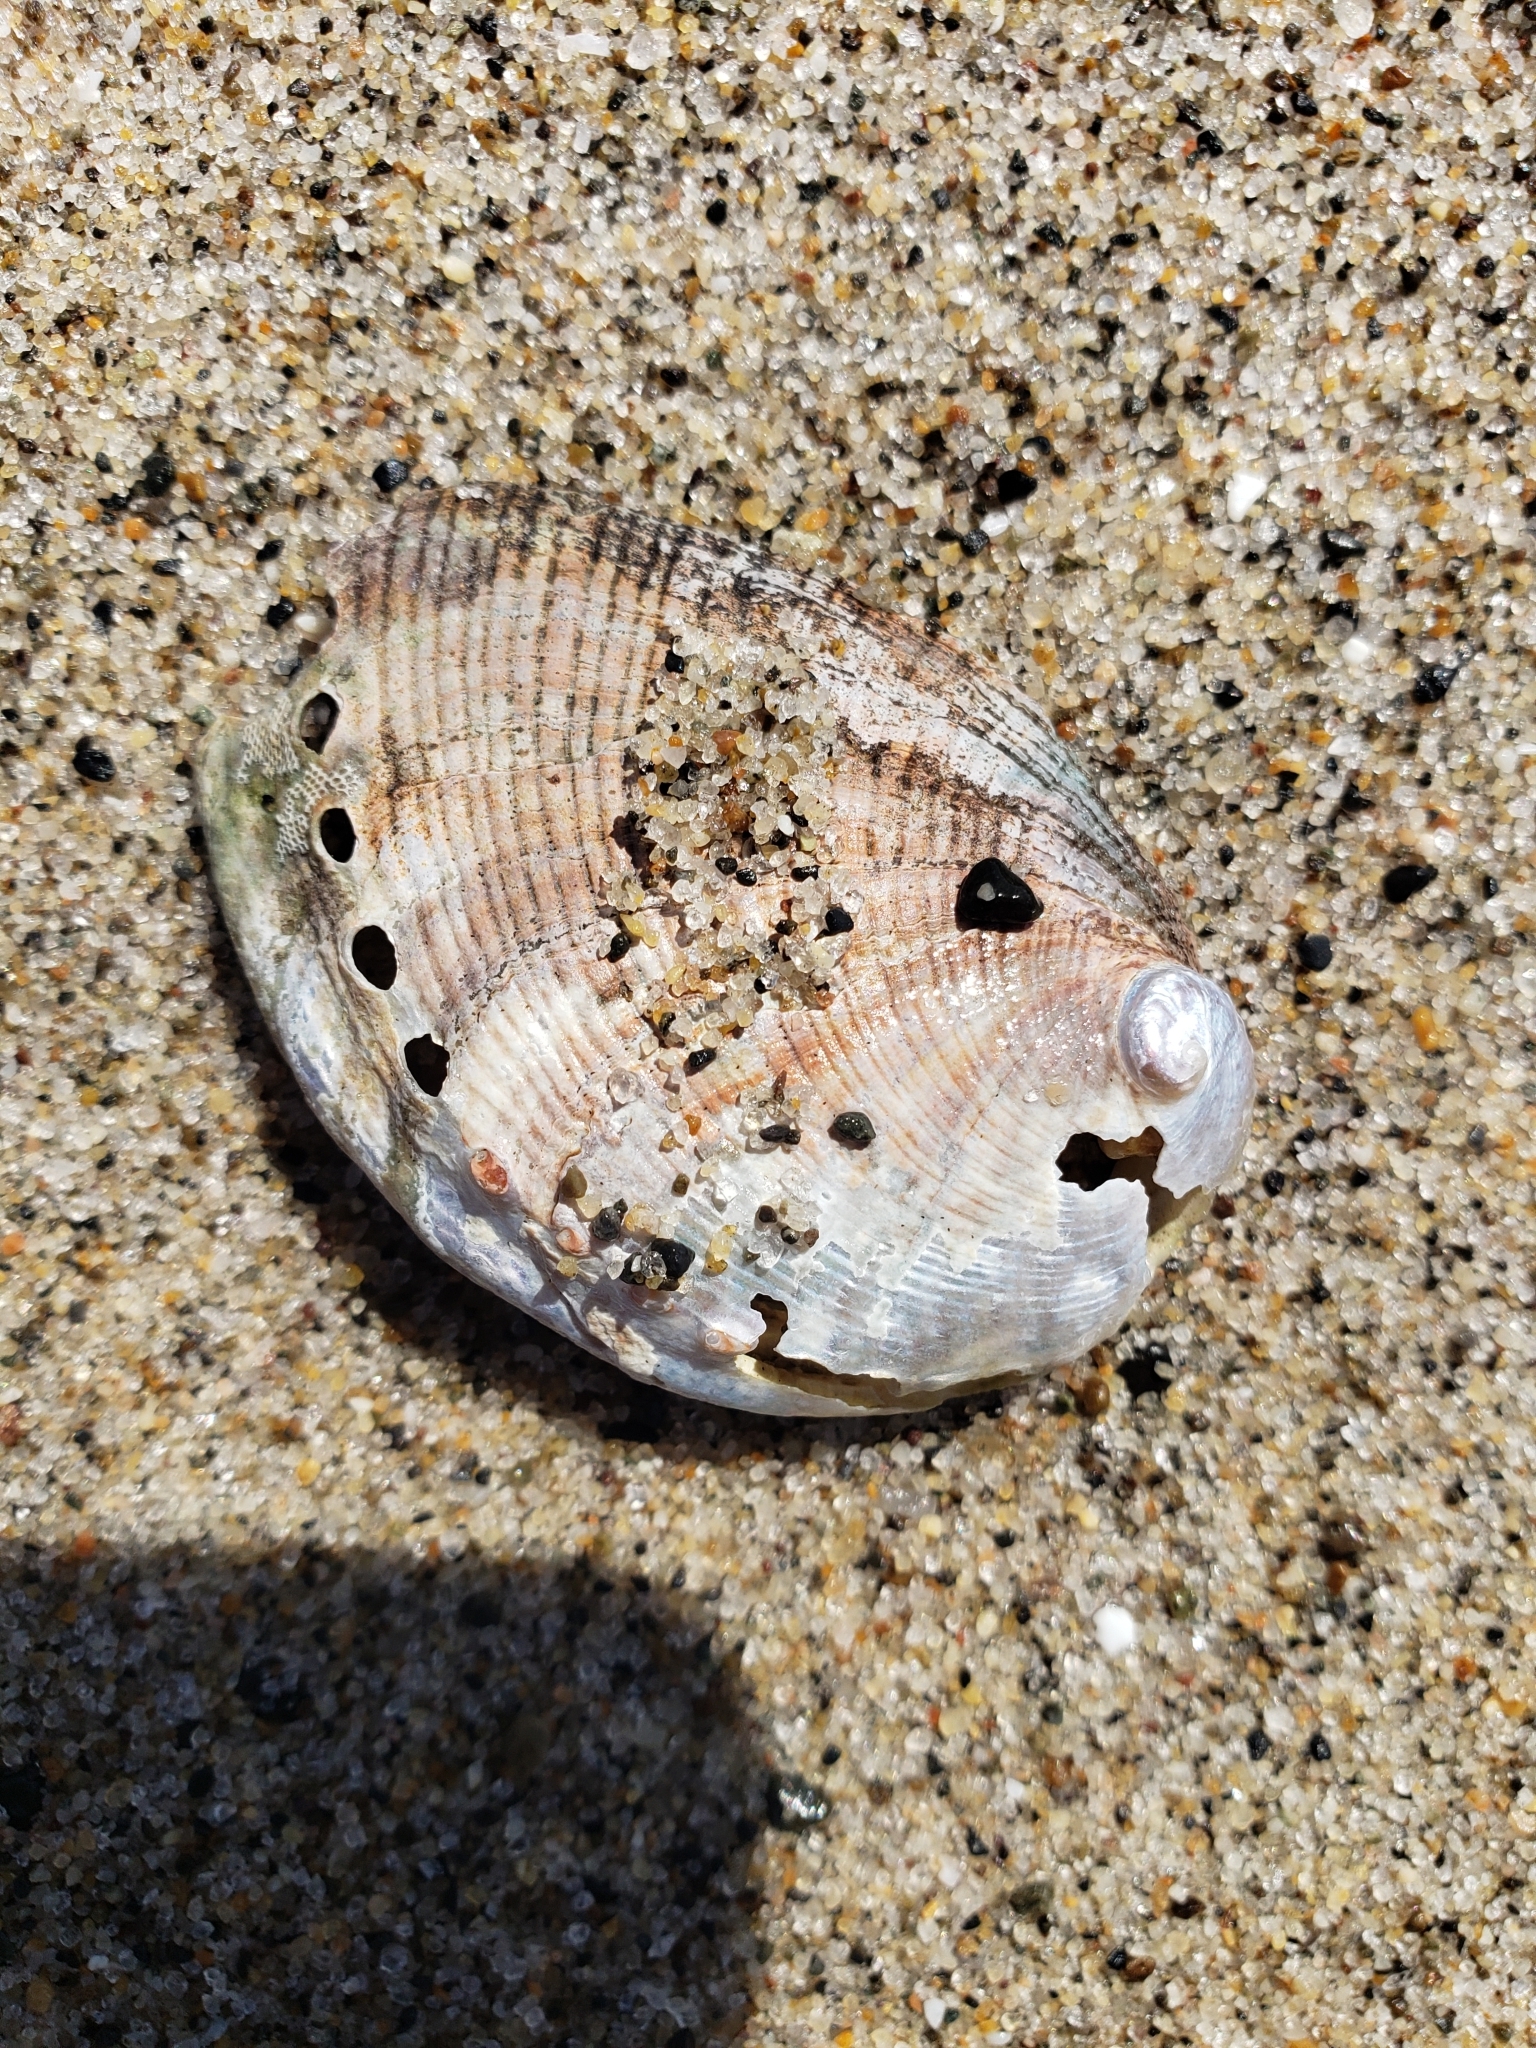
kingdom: Animalia
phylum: Mollusca
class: Gastropoda
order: Lepetellida
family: Haliotidae
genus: Haliotis
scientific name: Haliotis fulgens
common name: Green abalone
